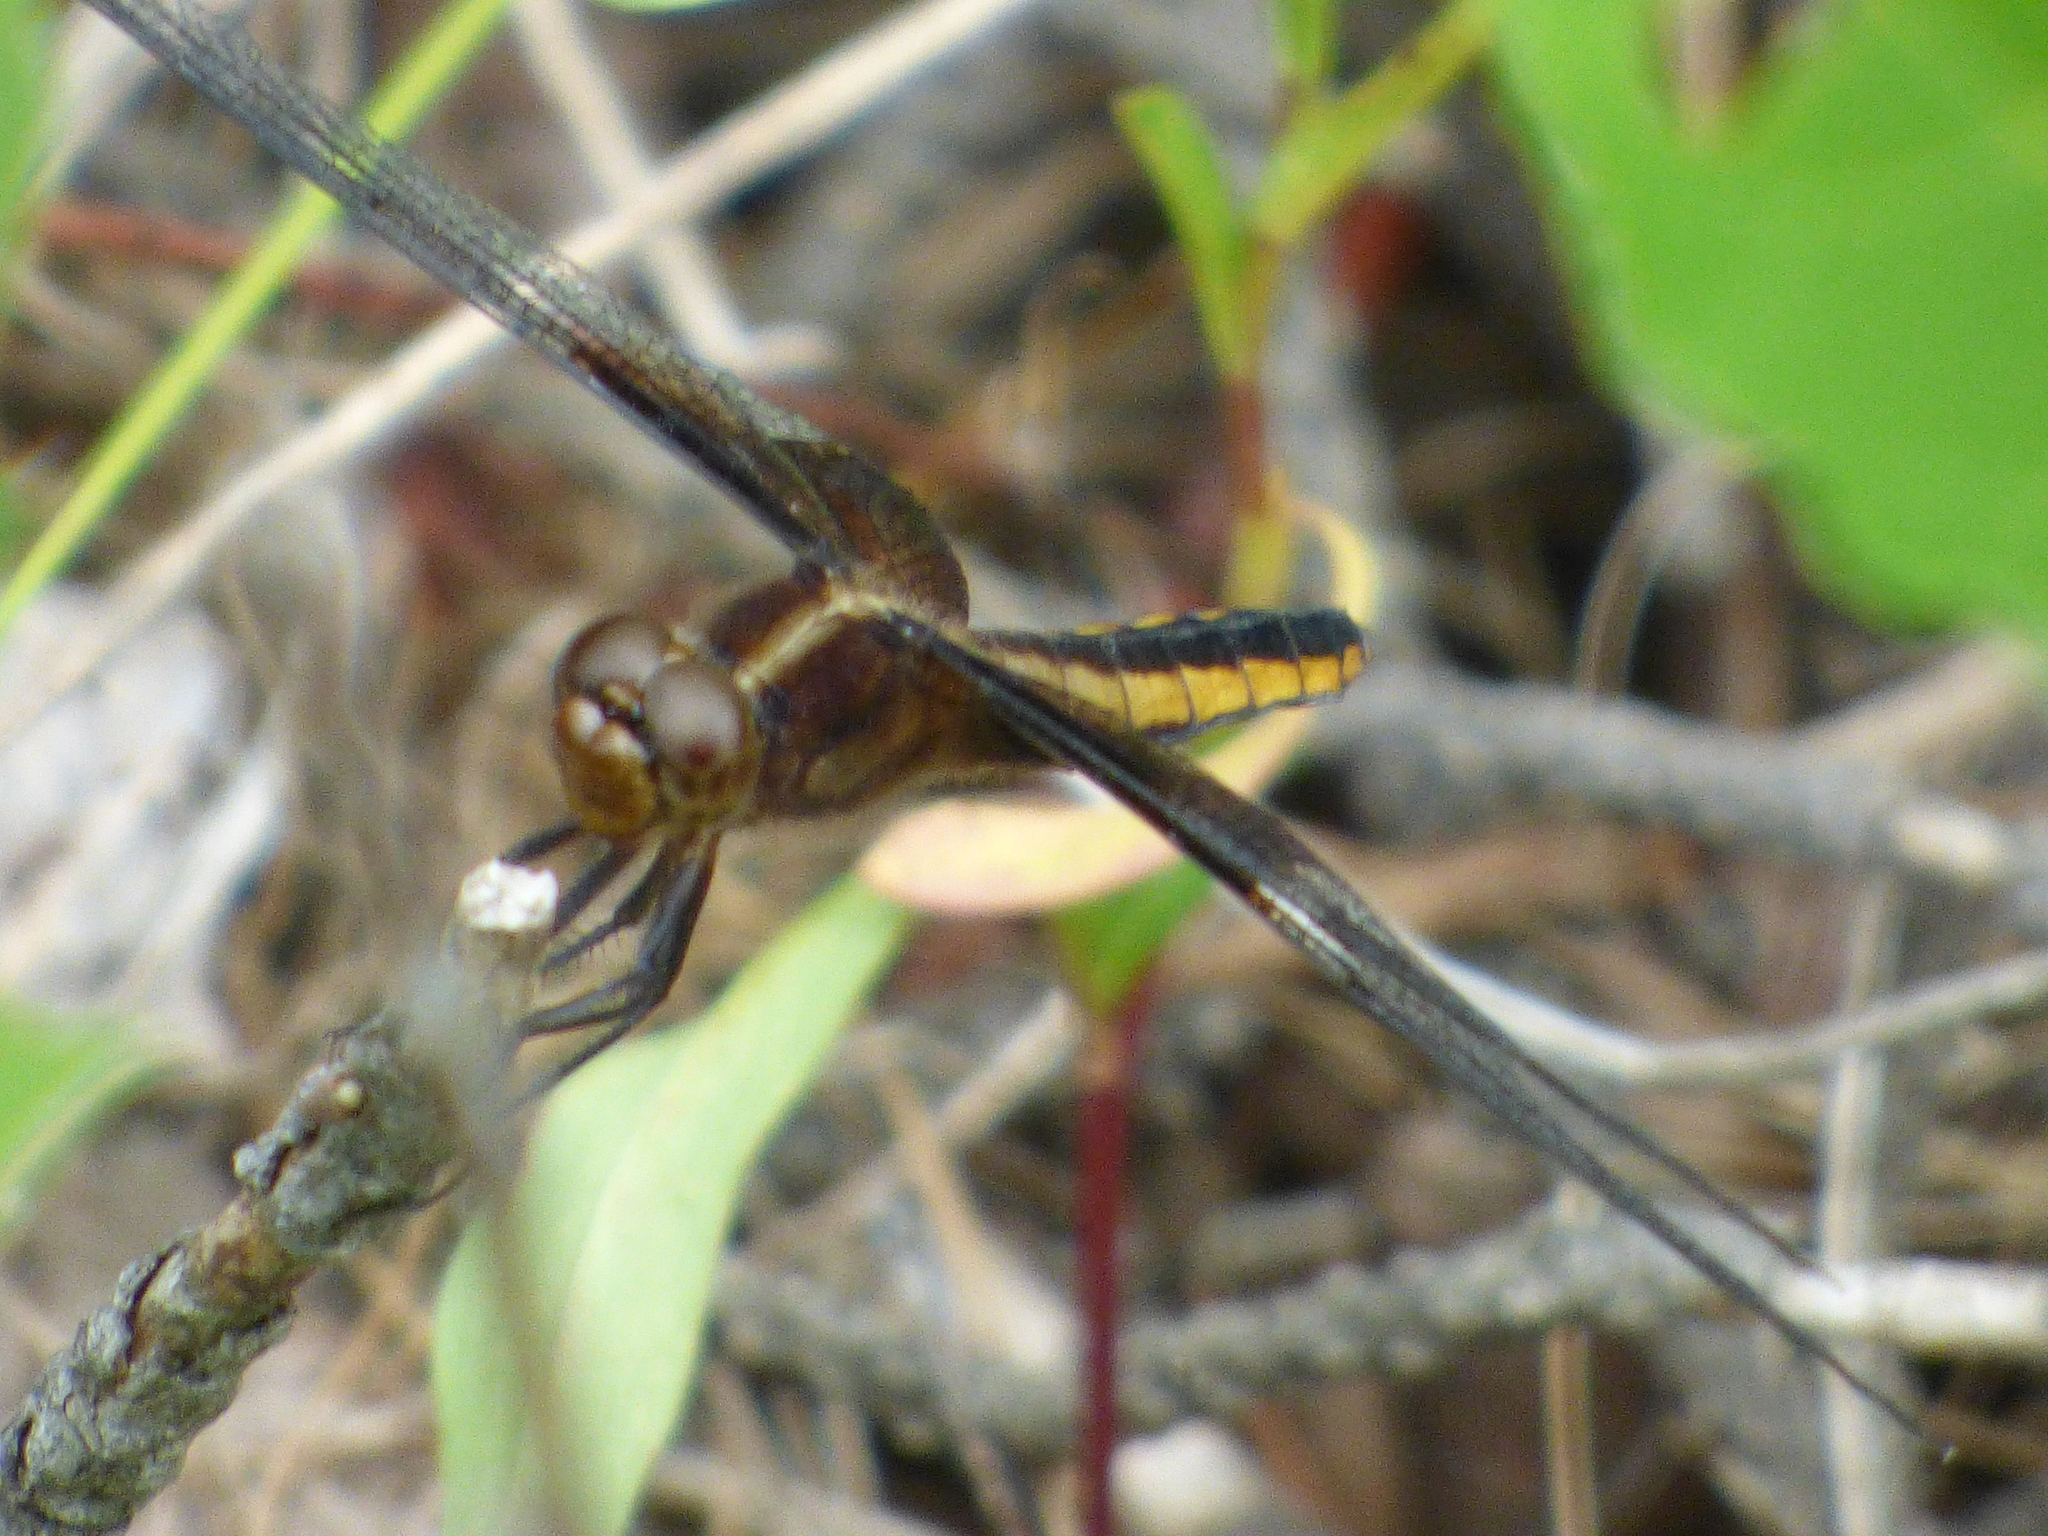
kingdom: Animalia
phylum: Arthropoda
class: Insecta
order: Odonata
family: Libellulidae
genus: Libellula
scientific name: Libellula luctuosa
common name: Widow skimmer
